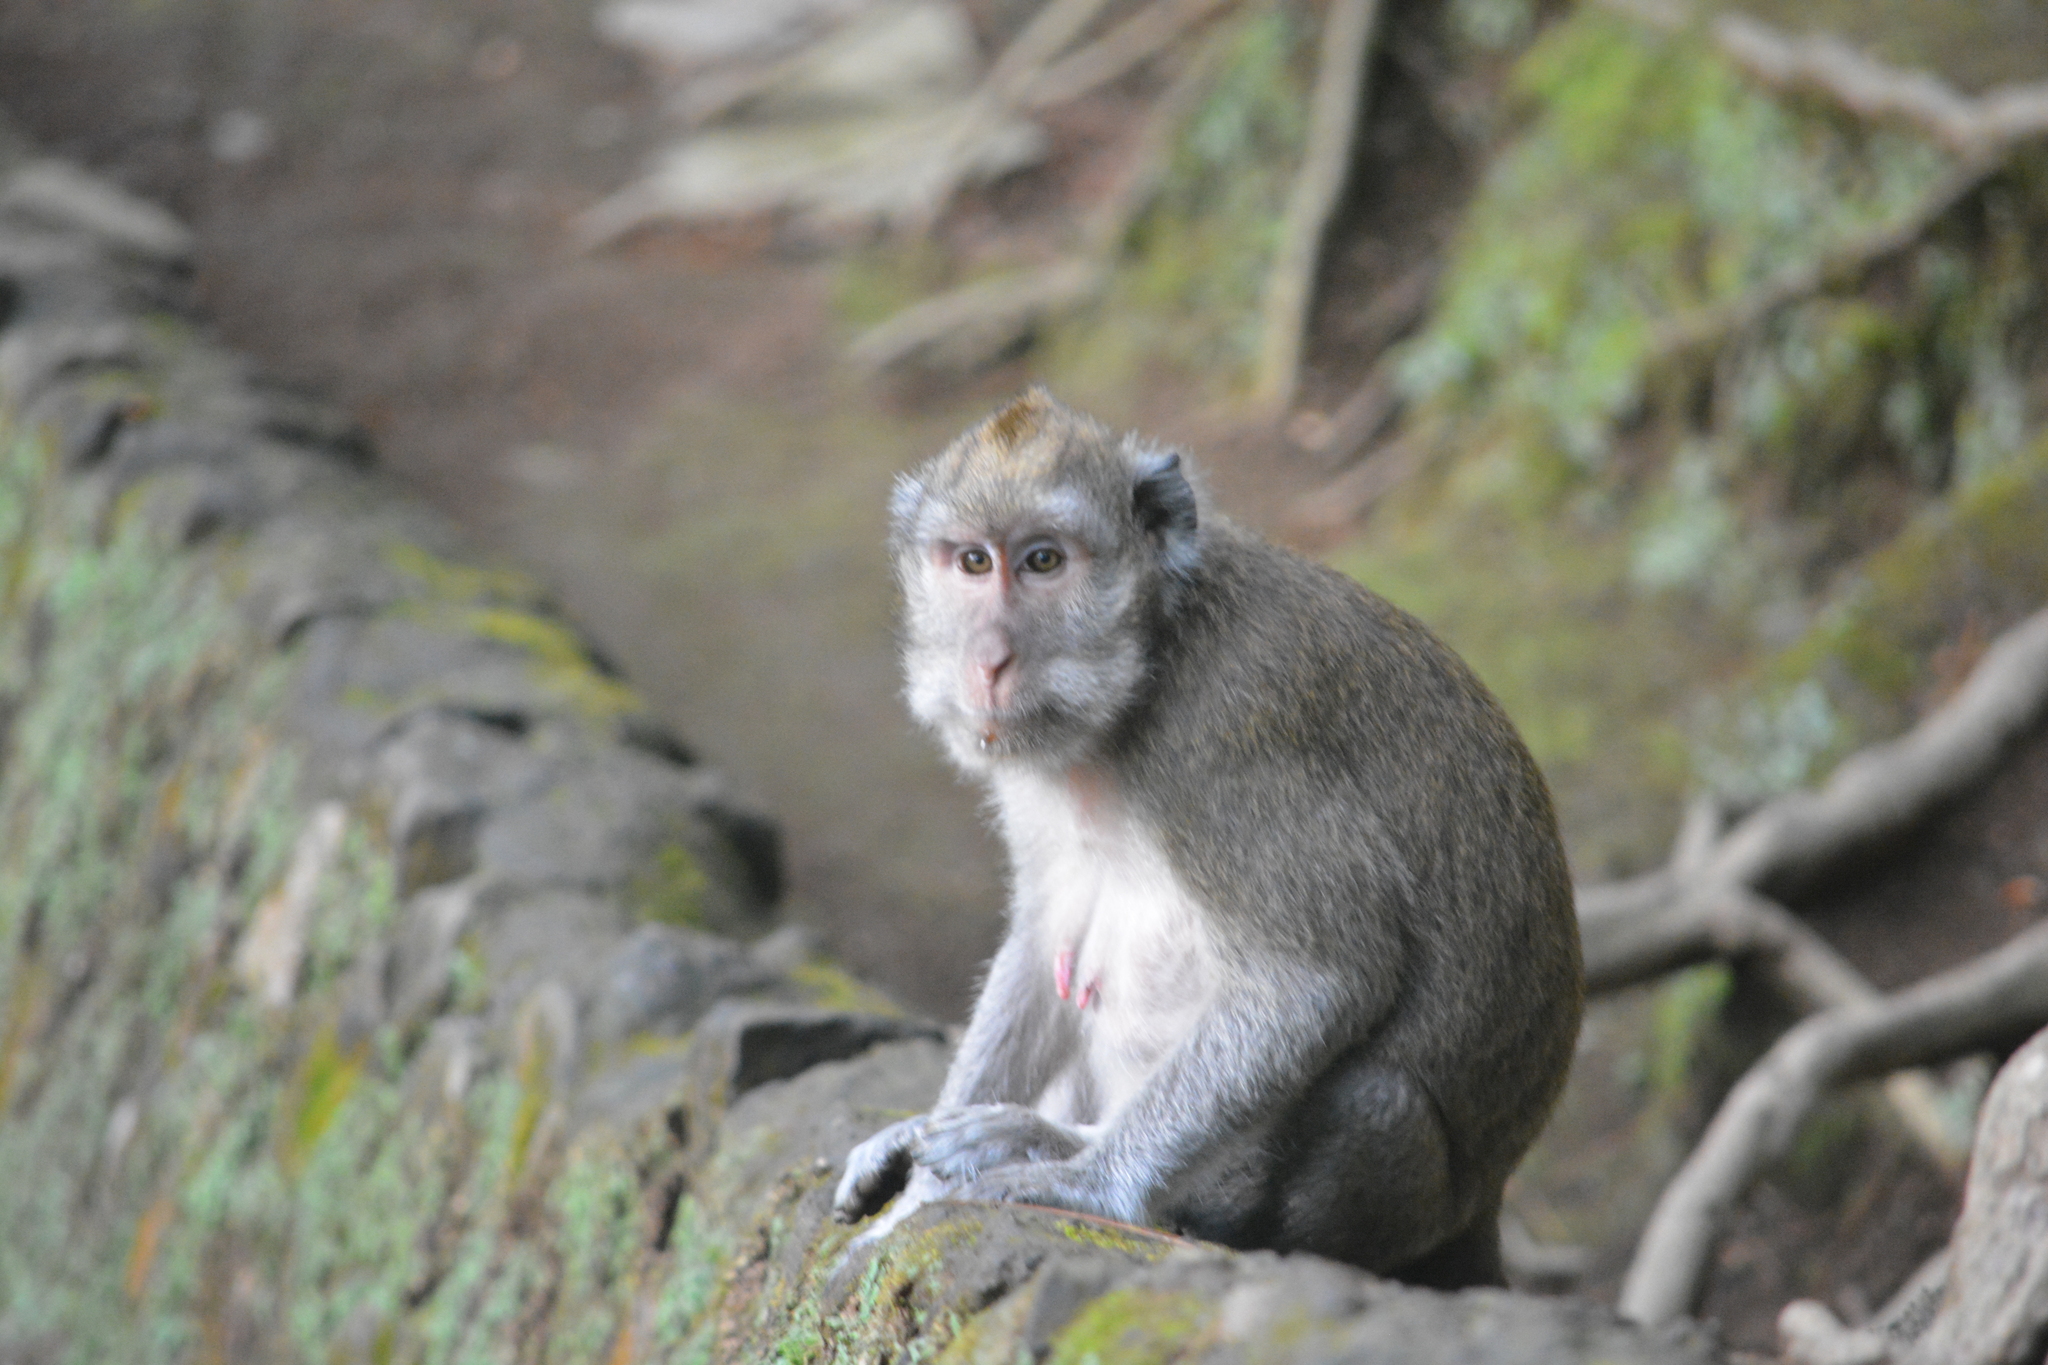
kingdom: Animalia
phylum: Chordata
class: Mammalia
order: Primates
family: Cercopithecidae
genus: Macaca
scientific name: Macaca fascicularis
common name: Crab-eating macaque
